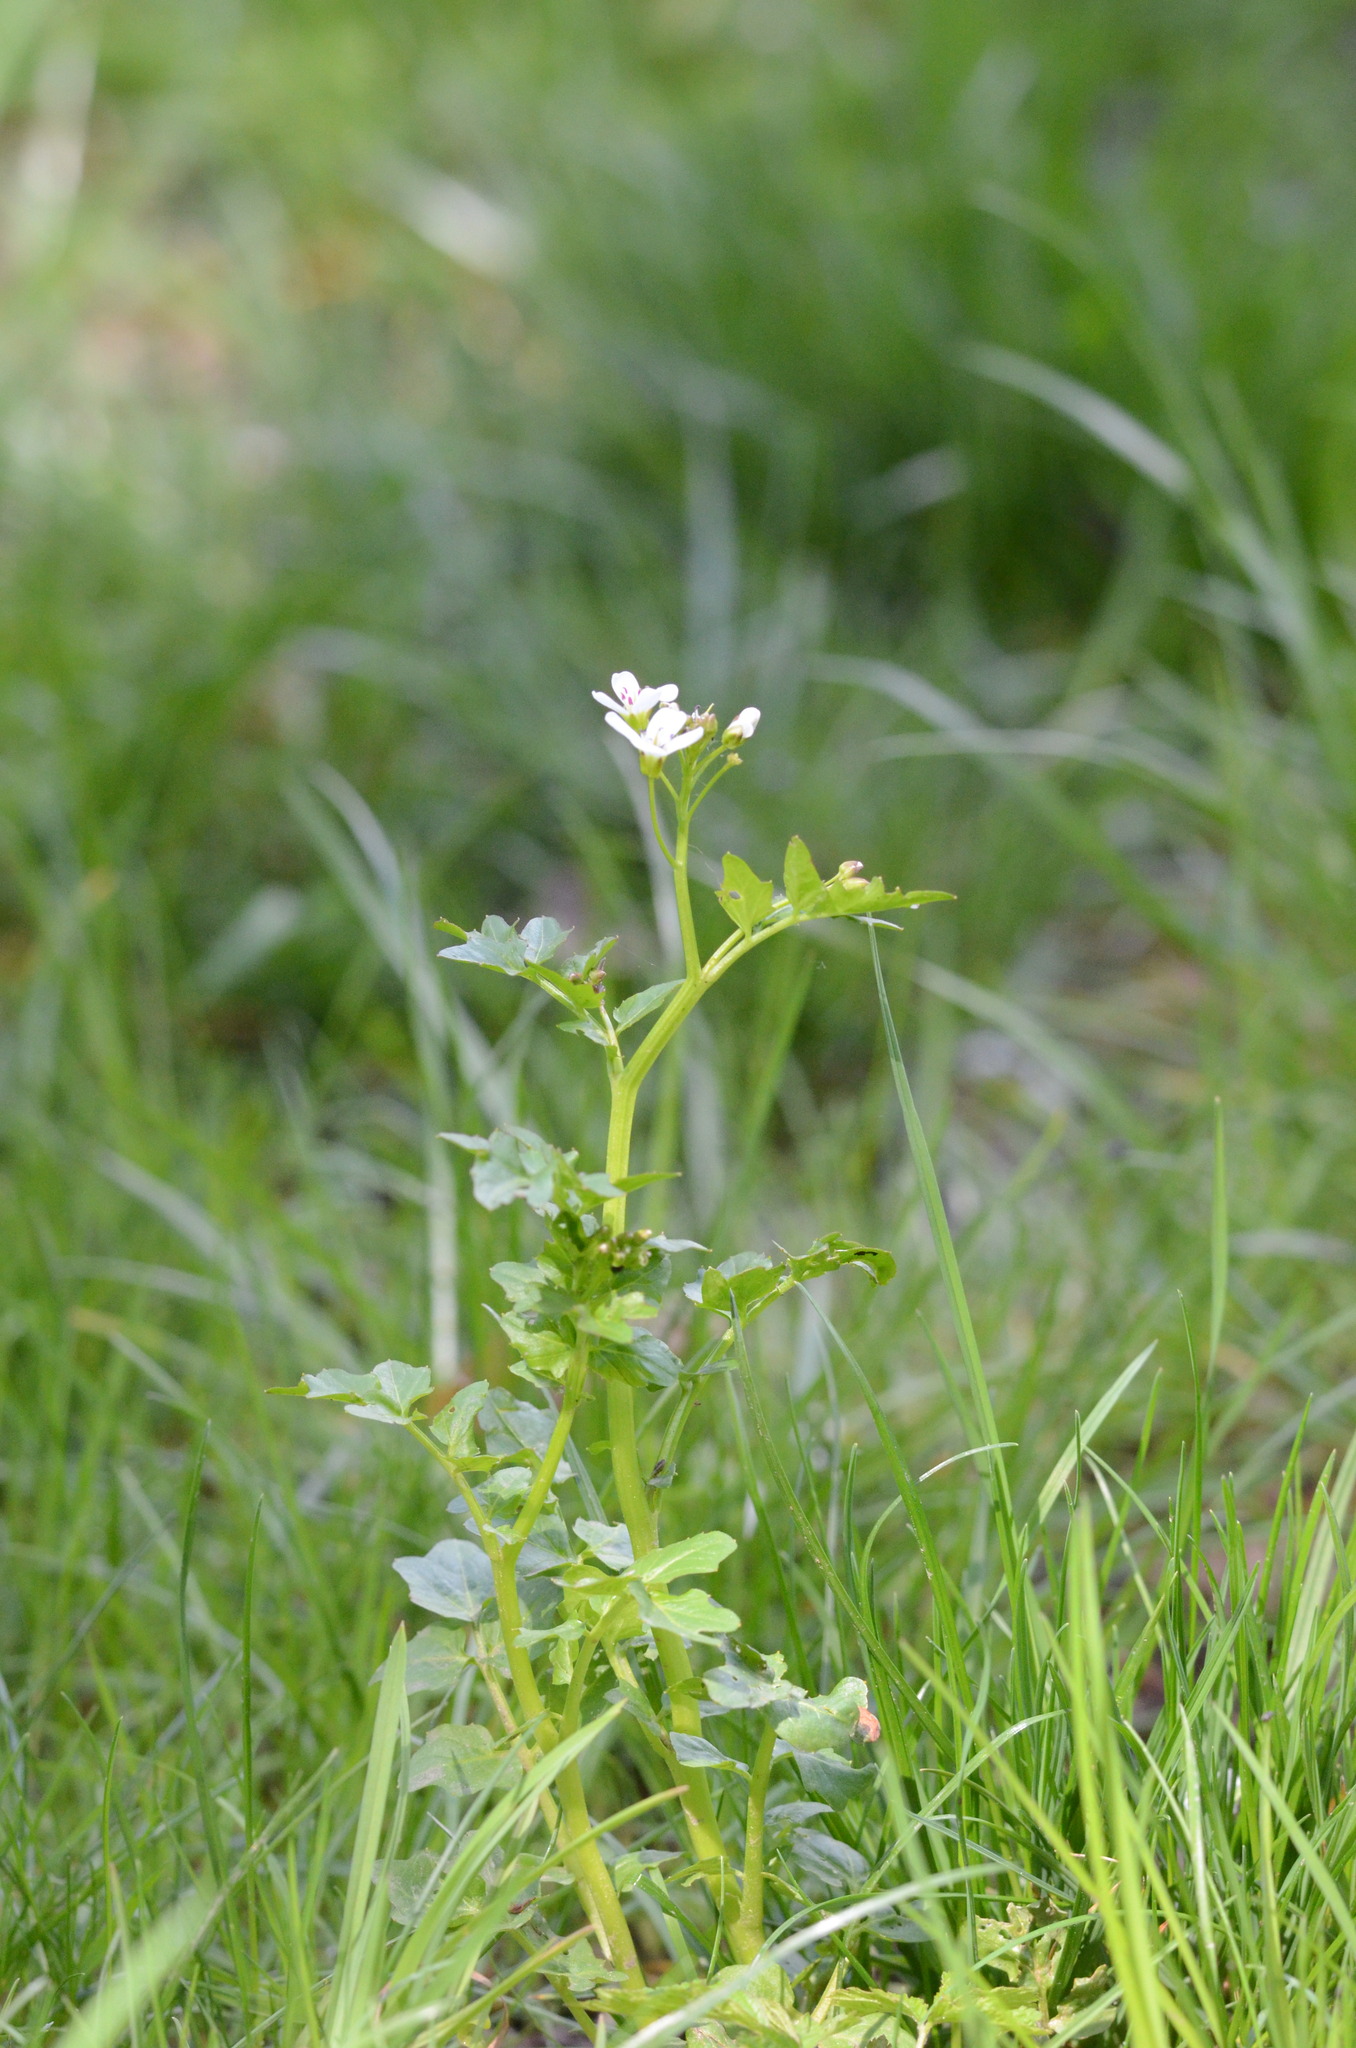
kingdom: Plantae
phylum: Tracheophyta
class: Magnoliopsida
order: Brassicales
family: Brassicaceae
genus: Cardamine
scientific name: Cardamine amara
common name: Large bitter-cress
